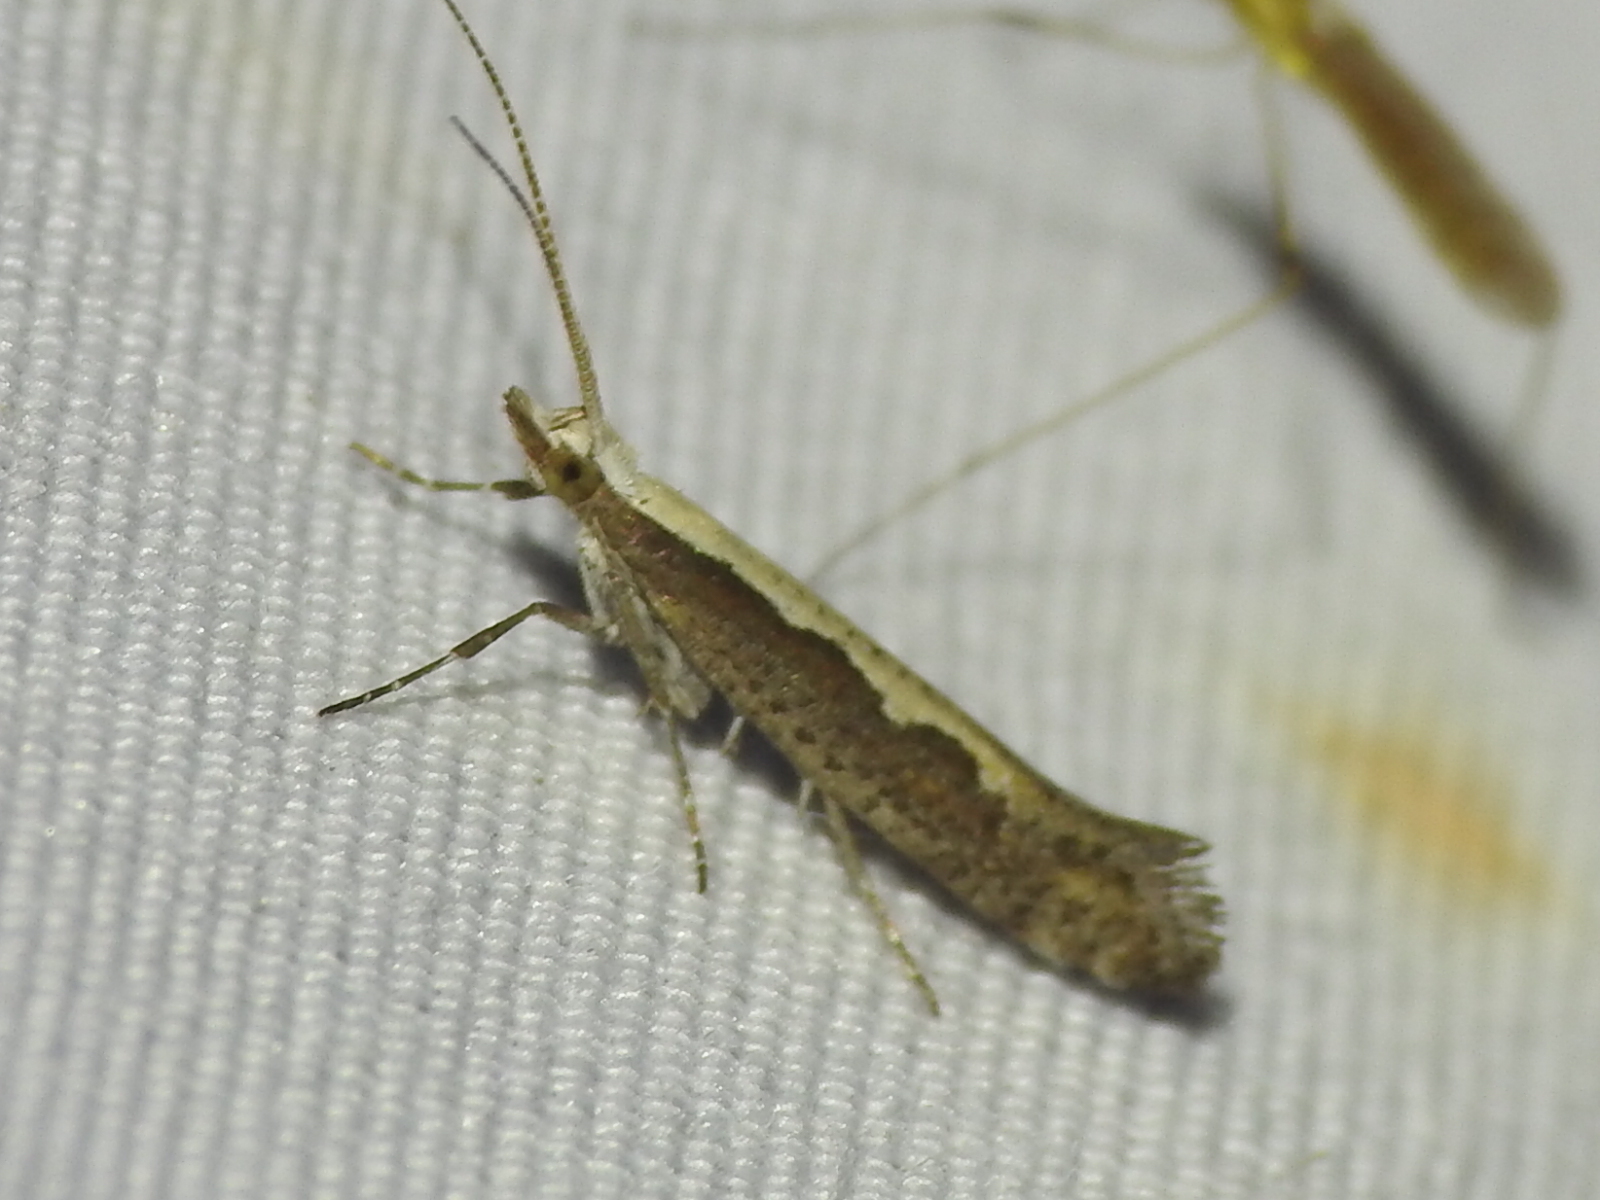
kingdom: Animalia
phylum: Arthropoda
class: Insecta
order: Lepidoptera
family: Plutellidae
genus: Plutella
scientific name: Plutella xylostella
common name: Diamond-back moth
